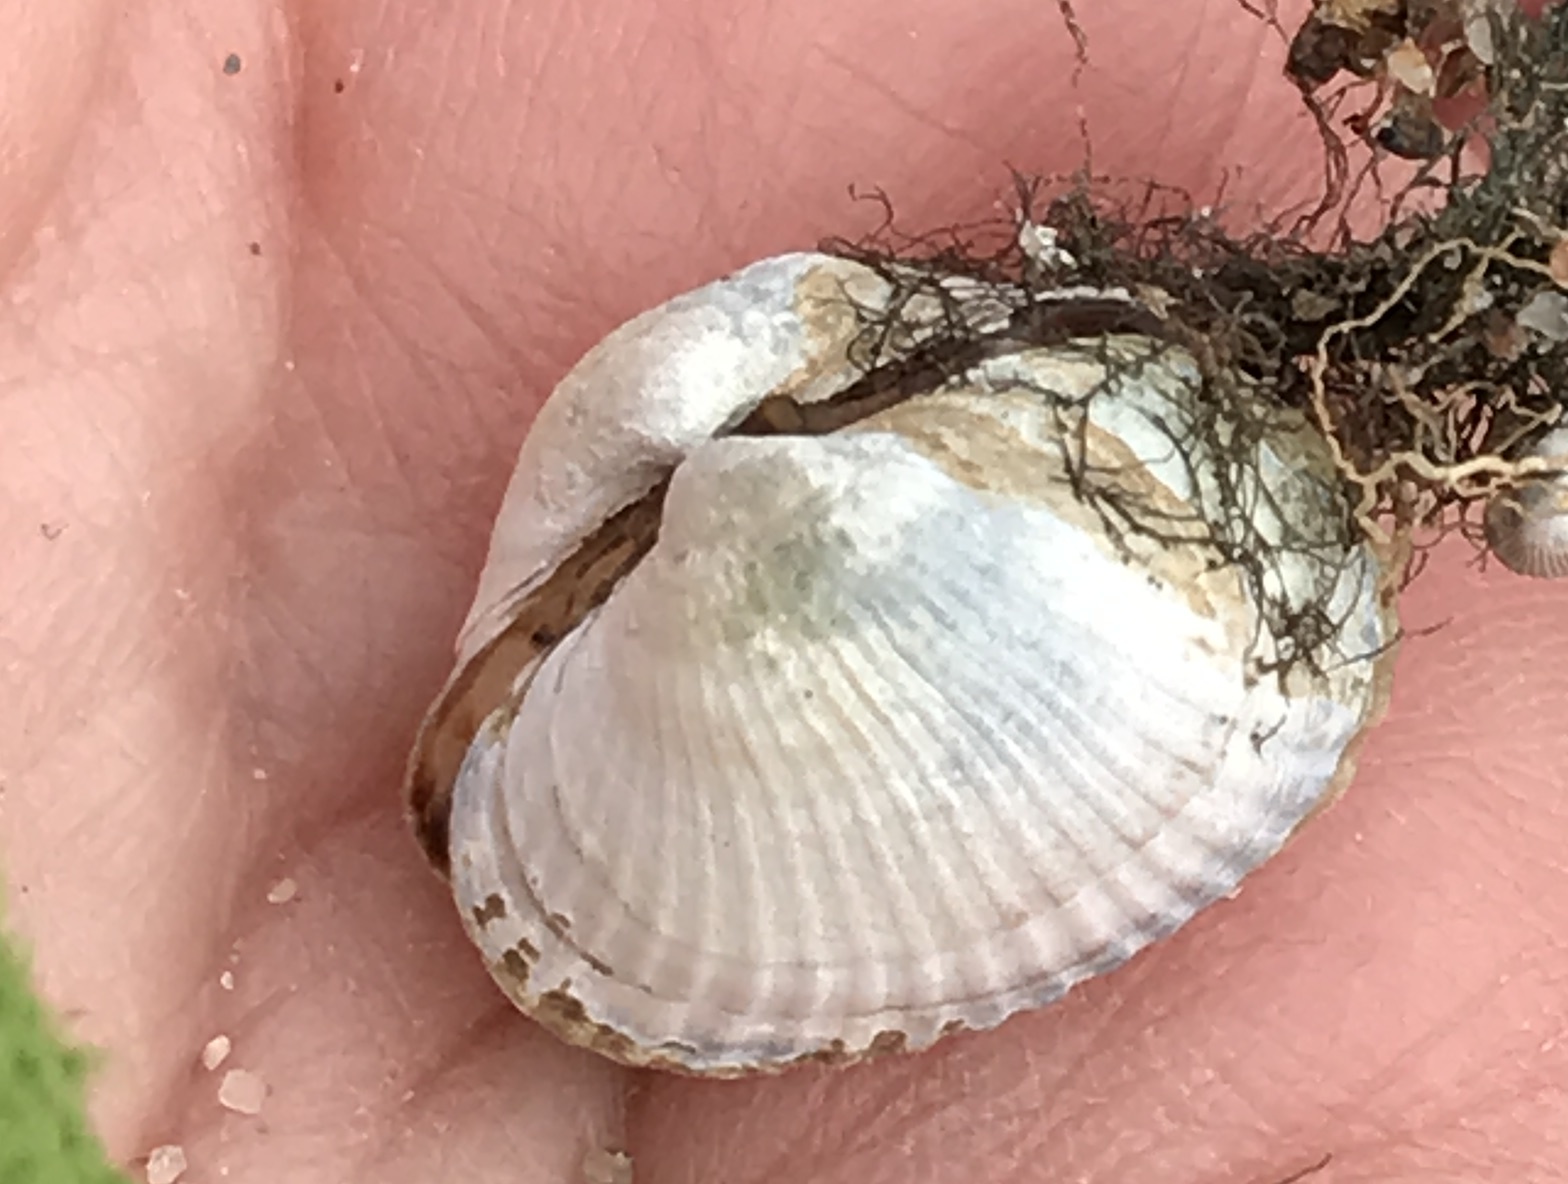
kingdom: Animalia
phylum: Mollusca
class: Bivalvia
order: Cardiida
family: Cardiidae
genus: Cerastoderma
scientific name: Cerastoderma glaucum
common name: Lagoon cockle
